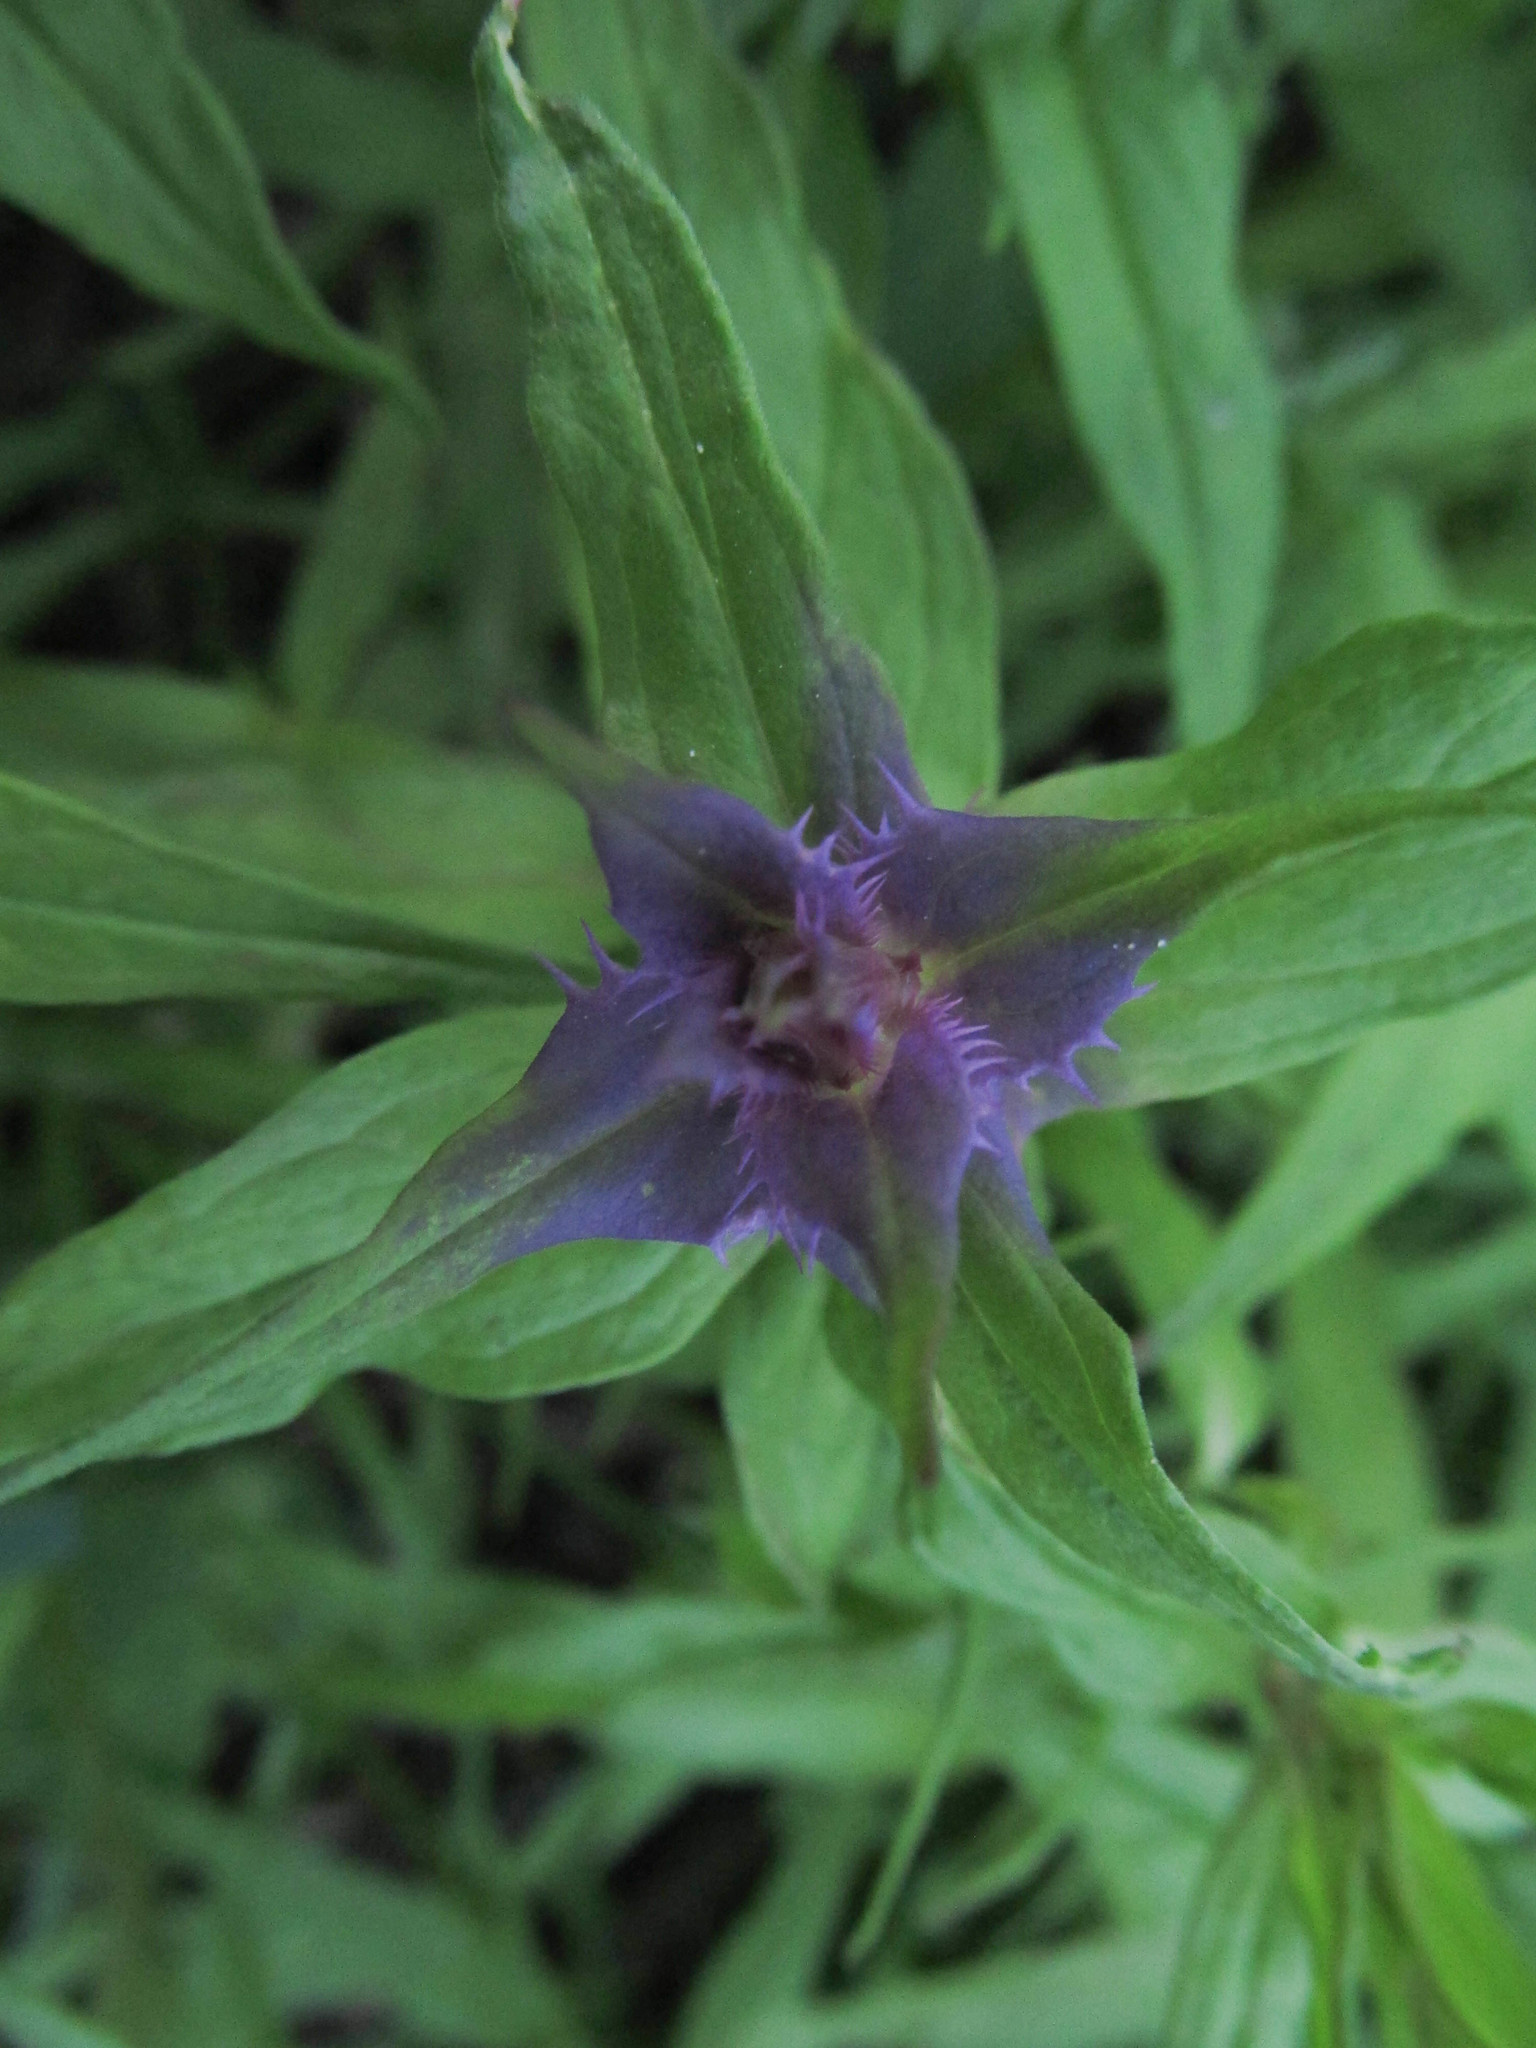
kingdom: Plantae
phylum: Tracheophyta
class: Magnoliopsida
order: Lamiales
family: Orobanchaceae
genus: Melampyrum
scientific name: Melampyrum nemorosum
